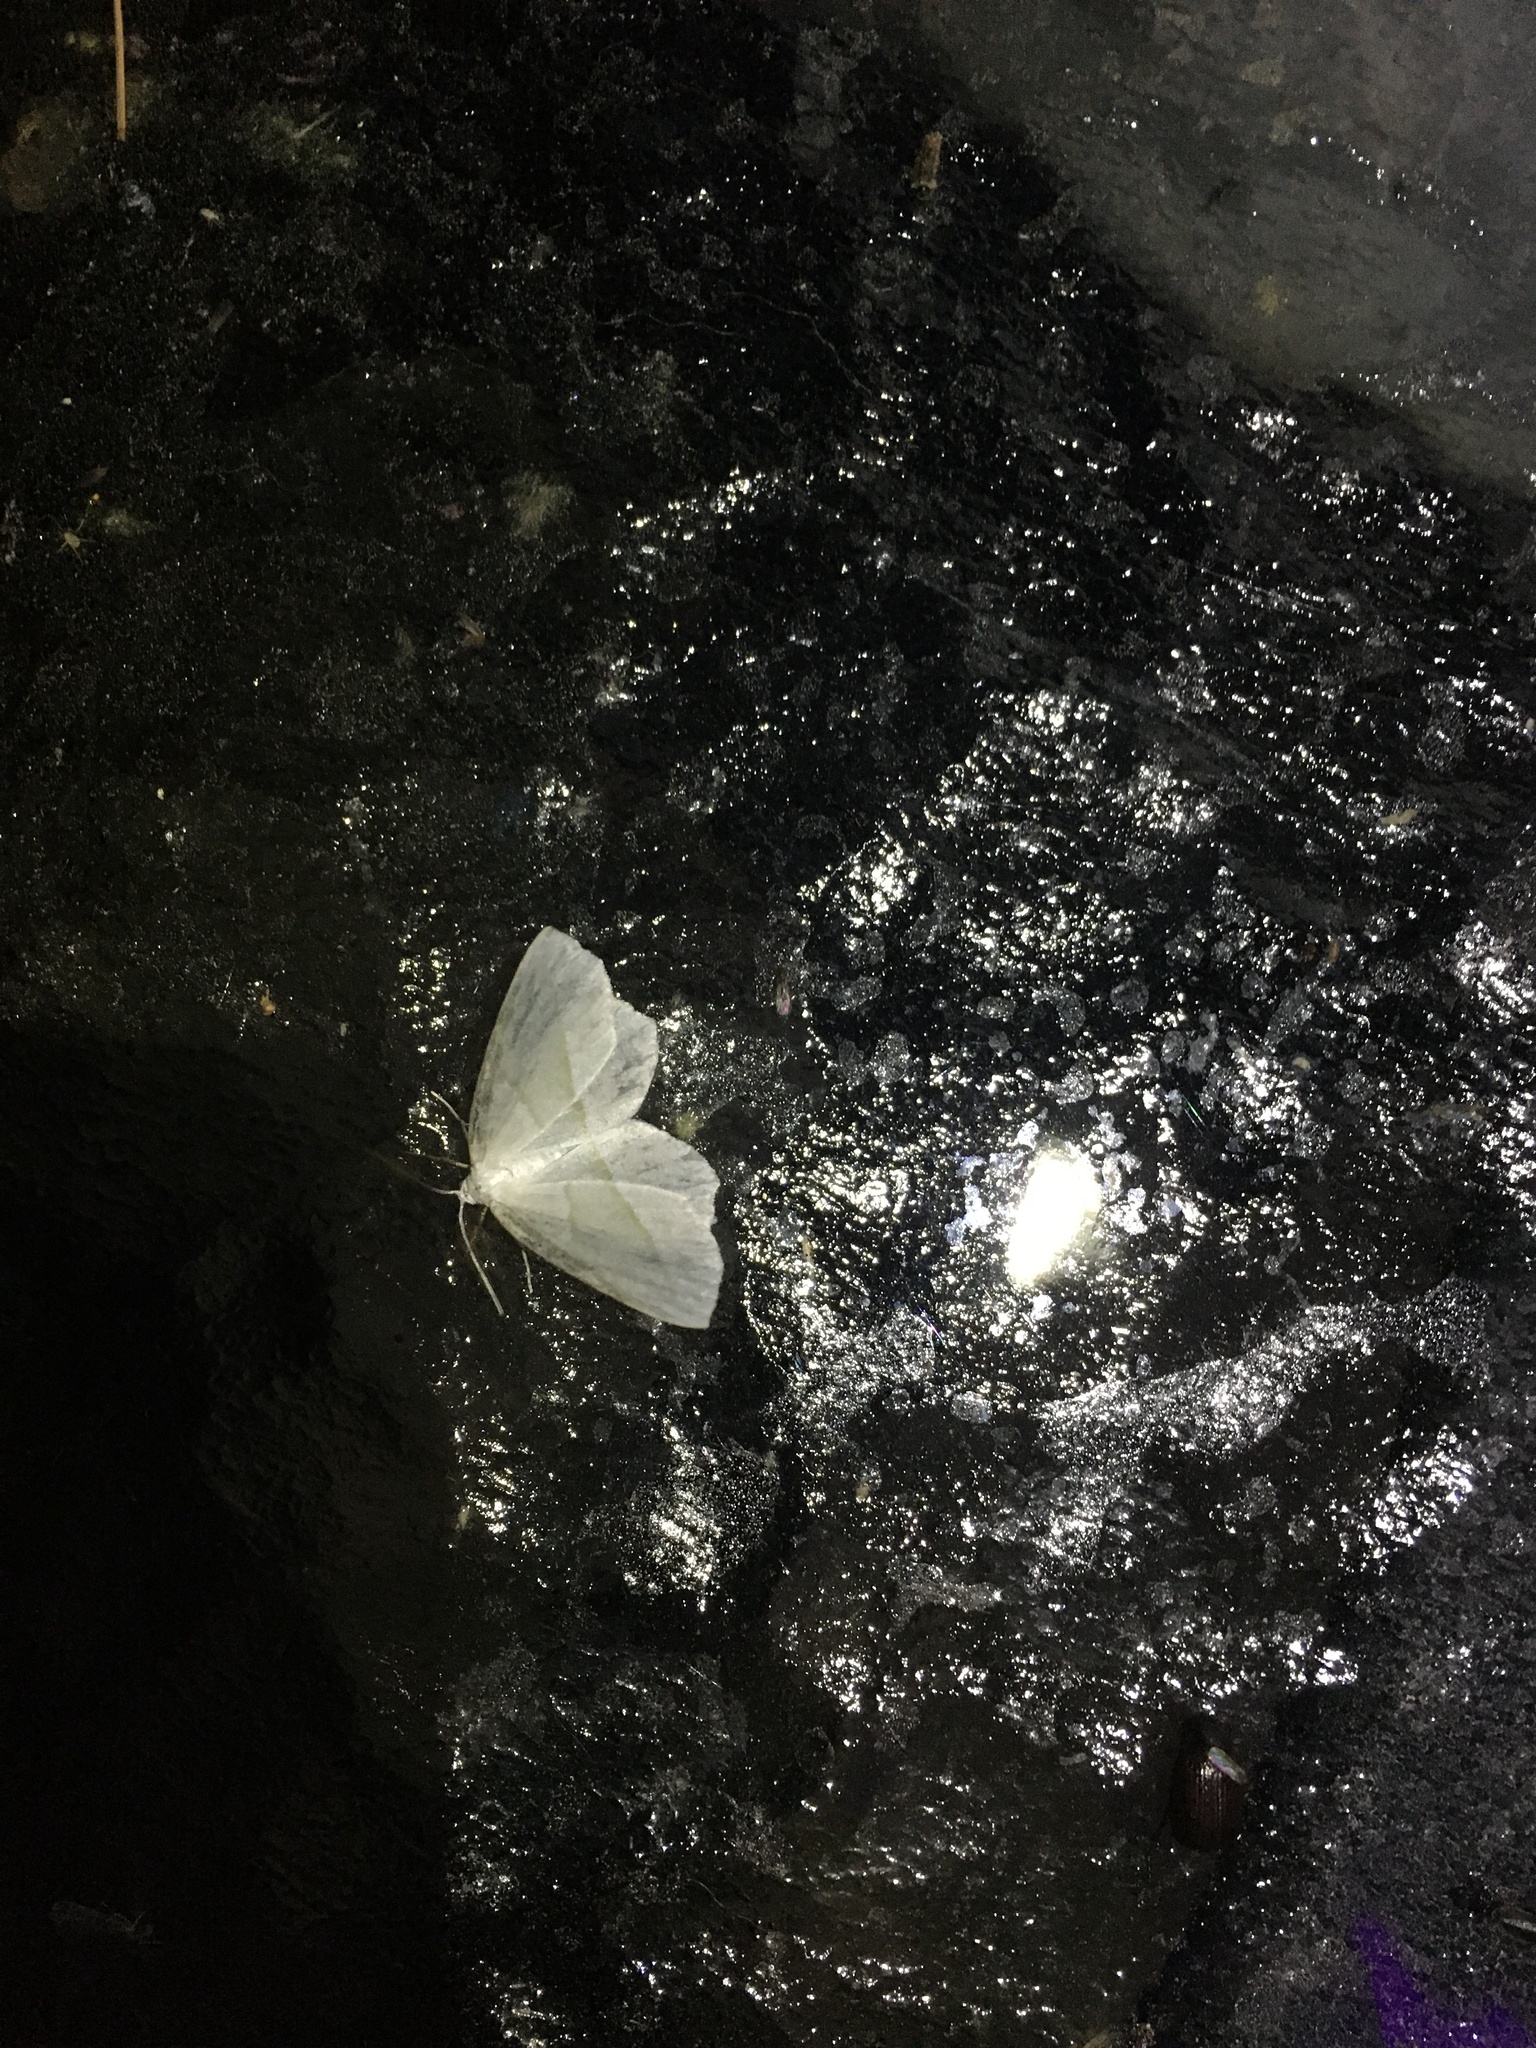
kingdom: Animalia
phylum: Arthropoda
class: Insecta
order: Lepidoptera
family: Geometridae
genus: Campaea
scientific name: Campaea perlata
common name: Fringed looper
